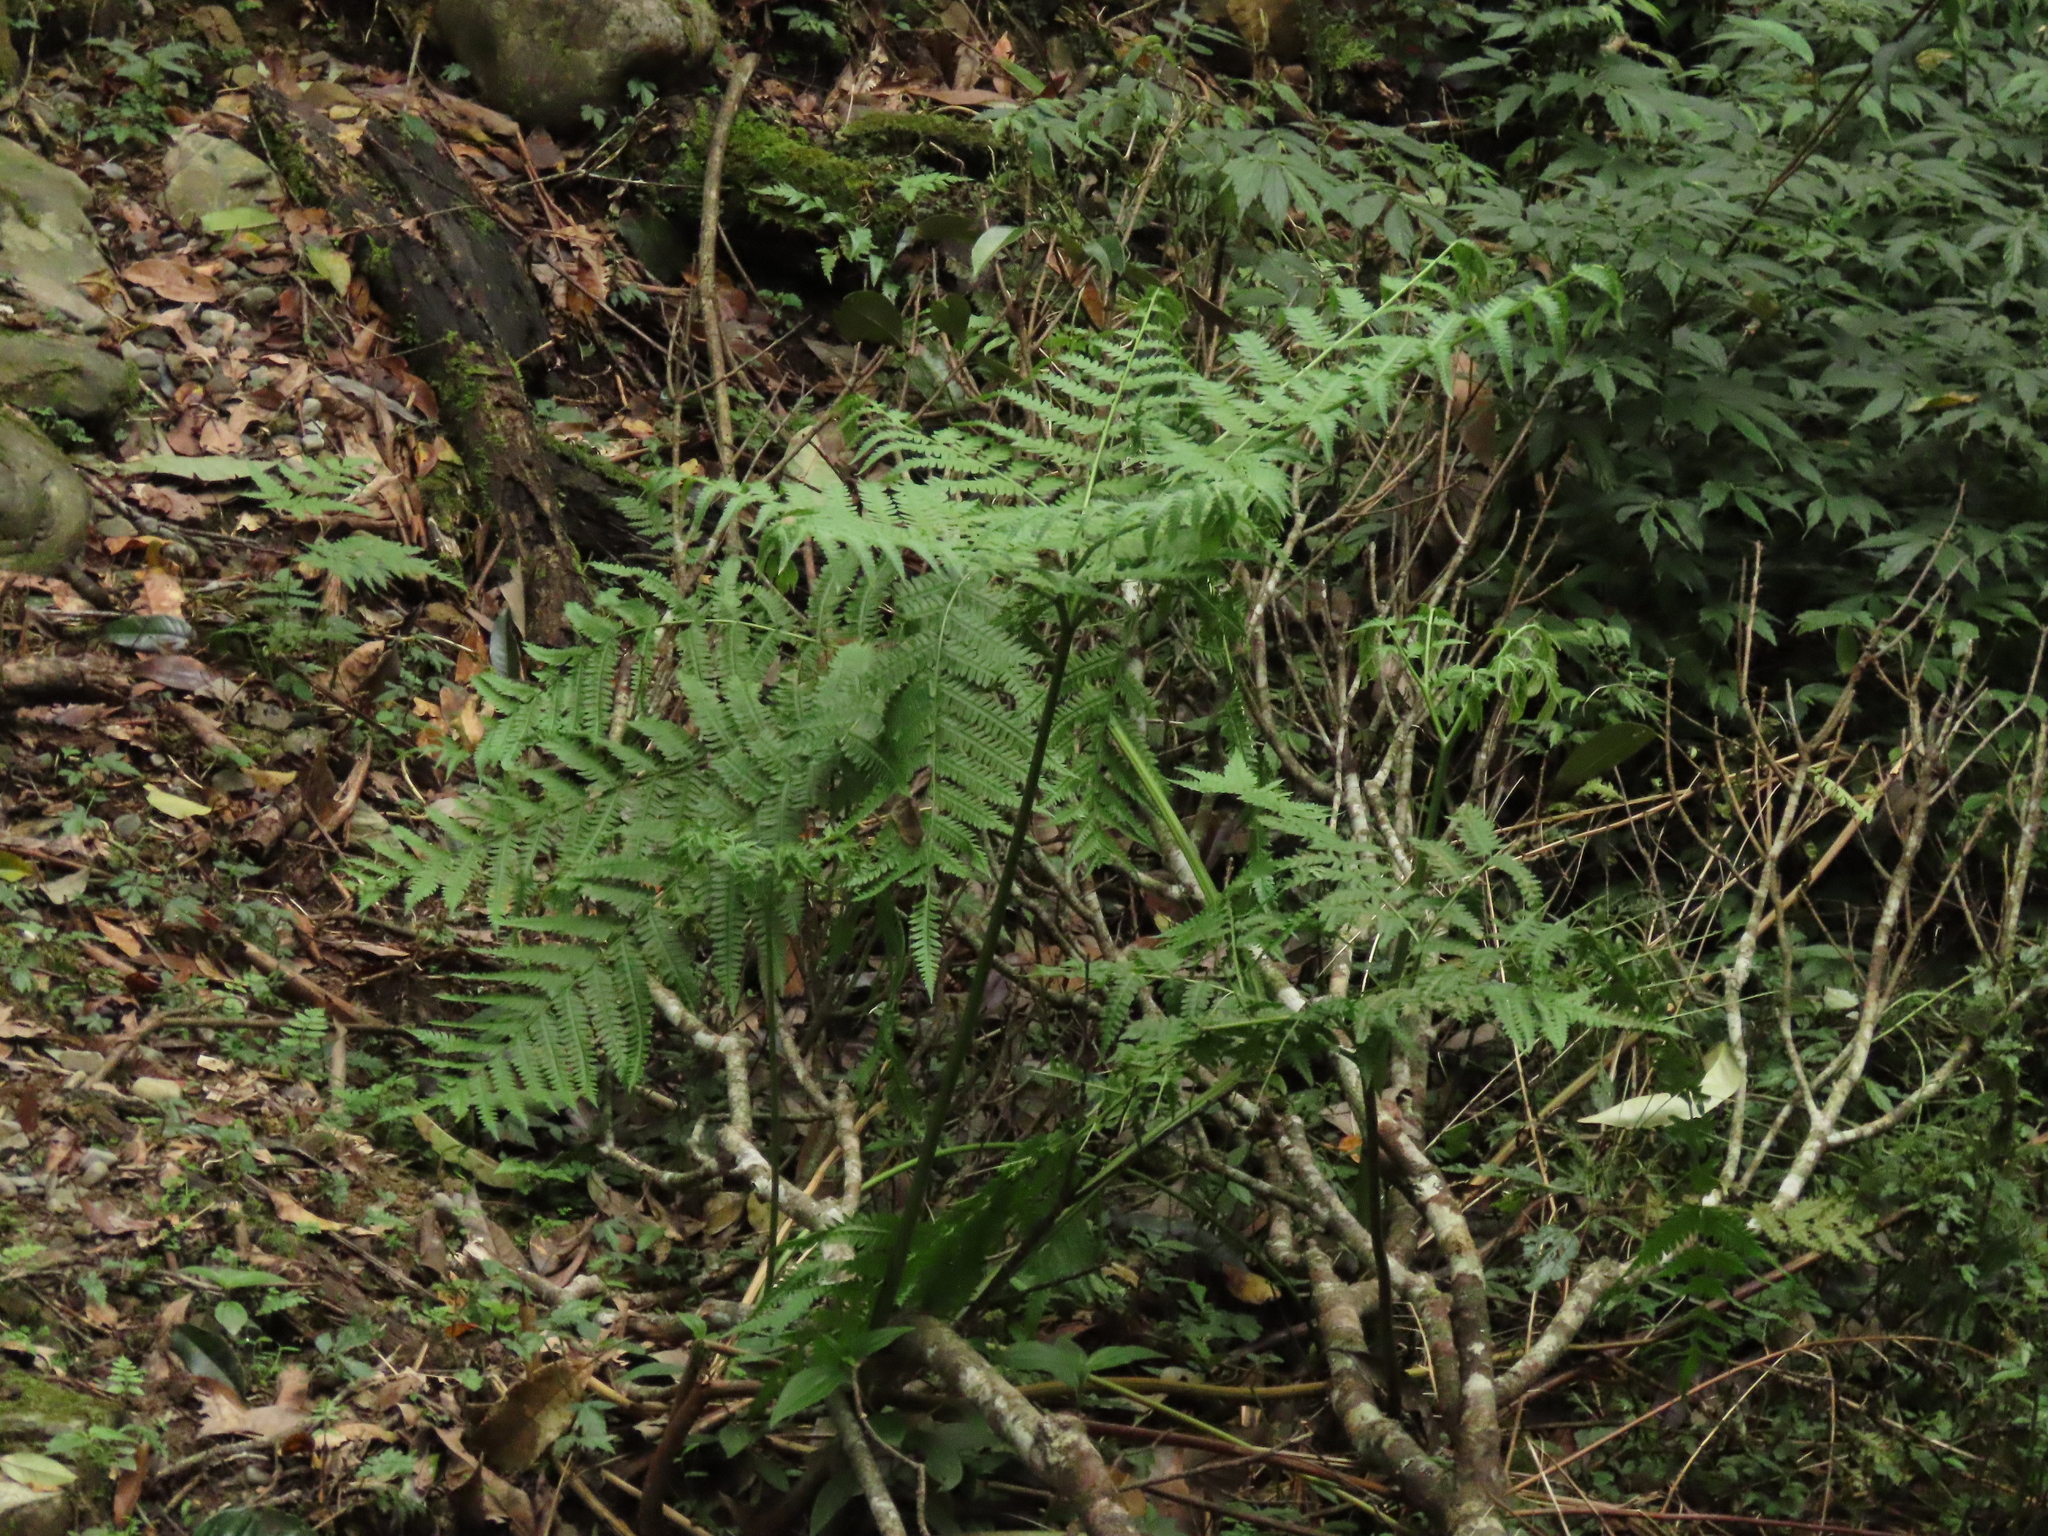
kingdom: Plantae
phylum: Tracheophyta
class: Polypodiopsida
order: Polypodiales
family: Pteridaceae
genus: Pteris
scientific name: Pteris wallichiana
